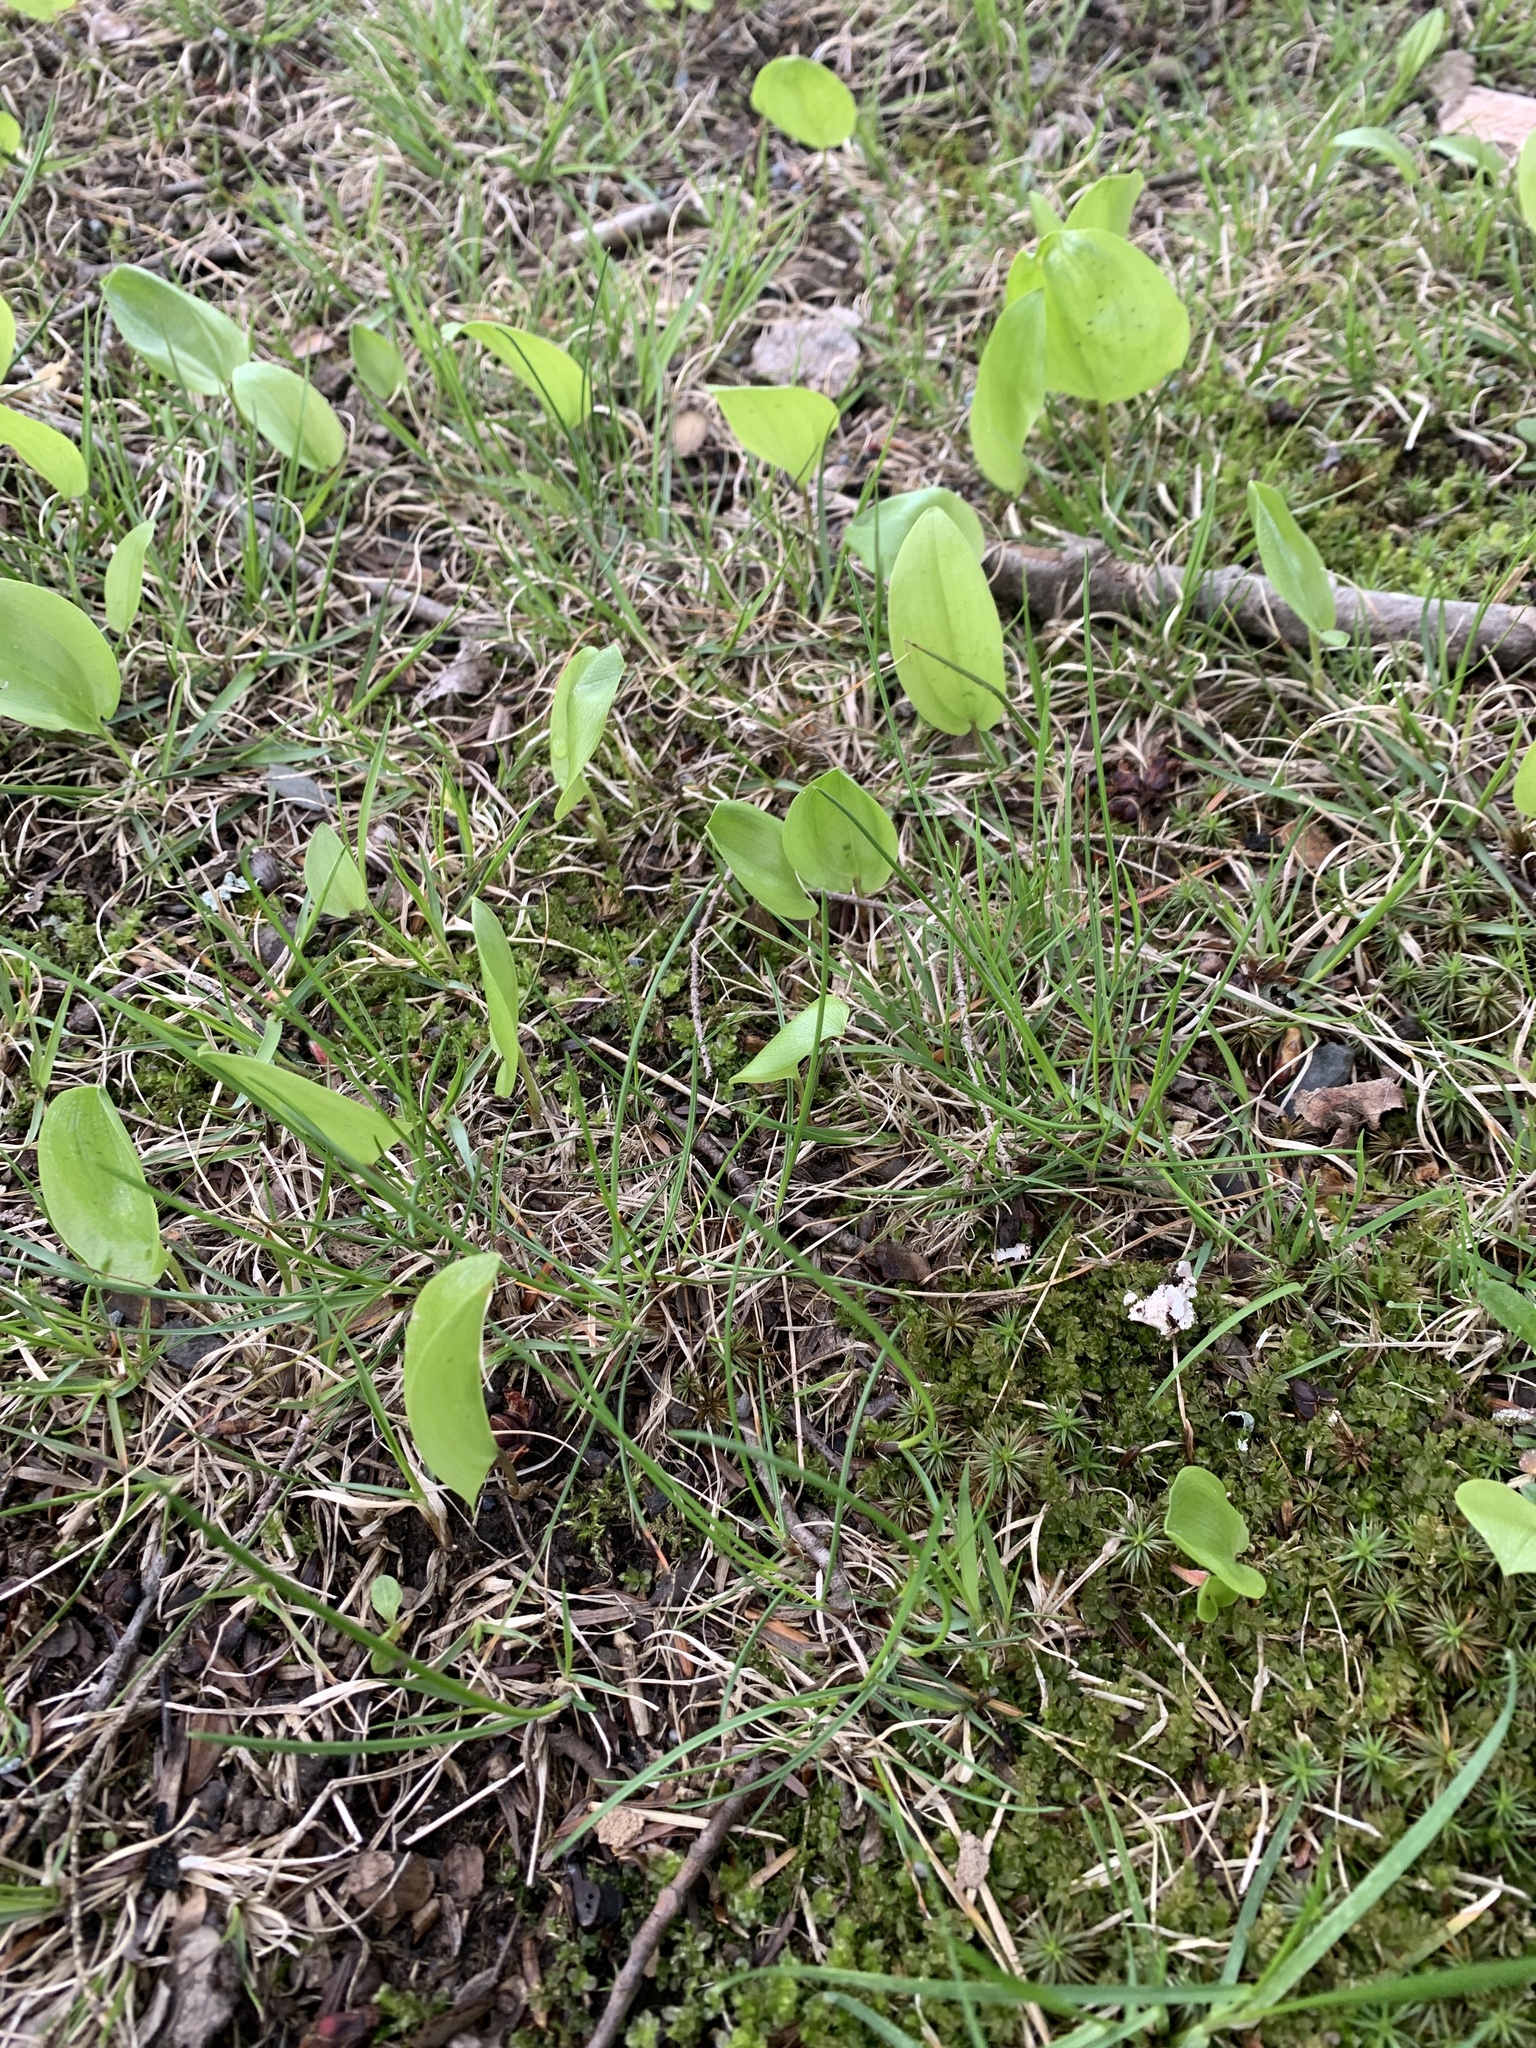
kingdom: Plantae
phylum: Tracheophyta
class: Liliopsida
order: Asparagales
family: Asparagaceae
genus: Maianthemum
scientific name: Maianthemum canadense
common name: False lily-of-the-valley
